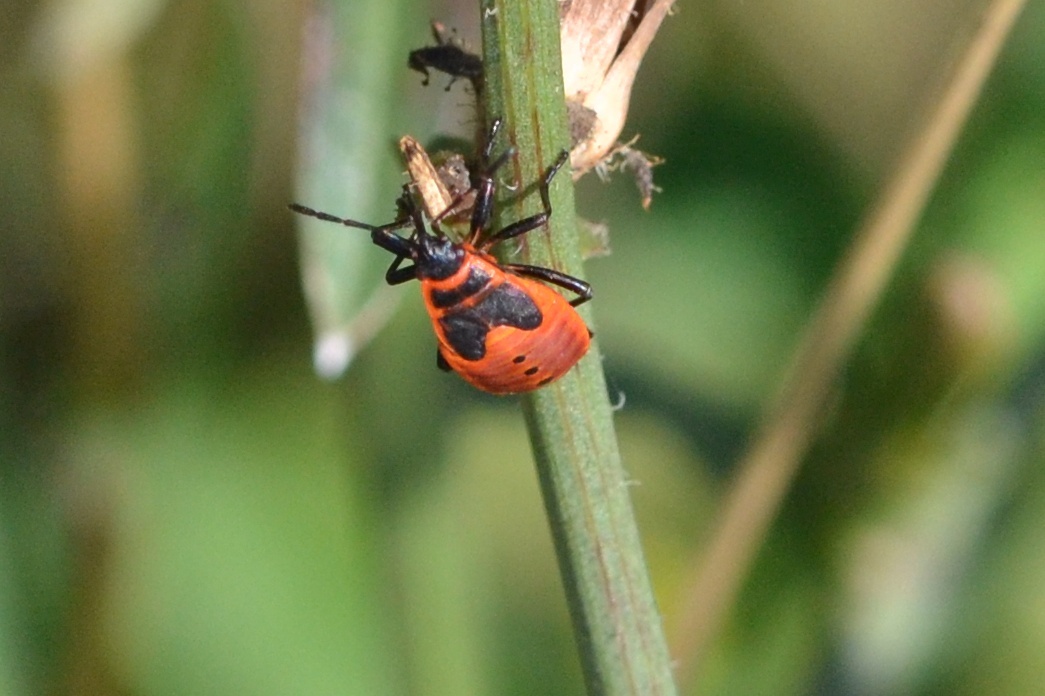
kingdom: Animalia
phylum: Arthropoda
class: Insecta
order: Hemiptera
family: Pyrrhocoridae
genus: Pyrrhocoris
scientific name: Pyrrhocoris apterus
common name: Firebug
